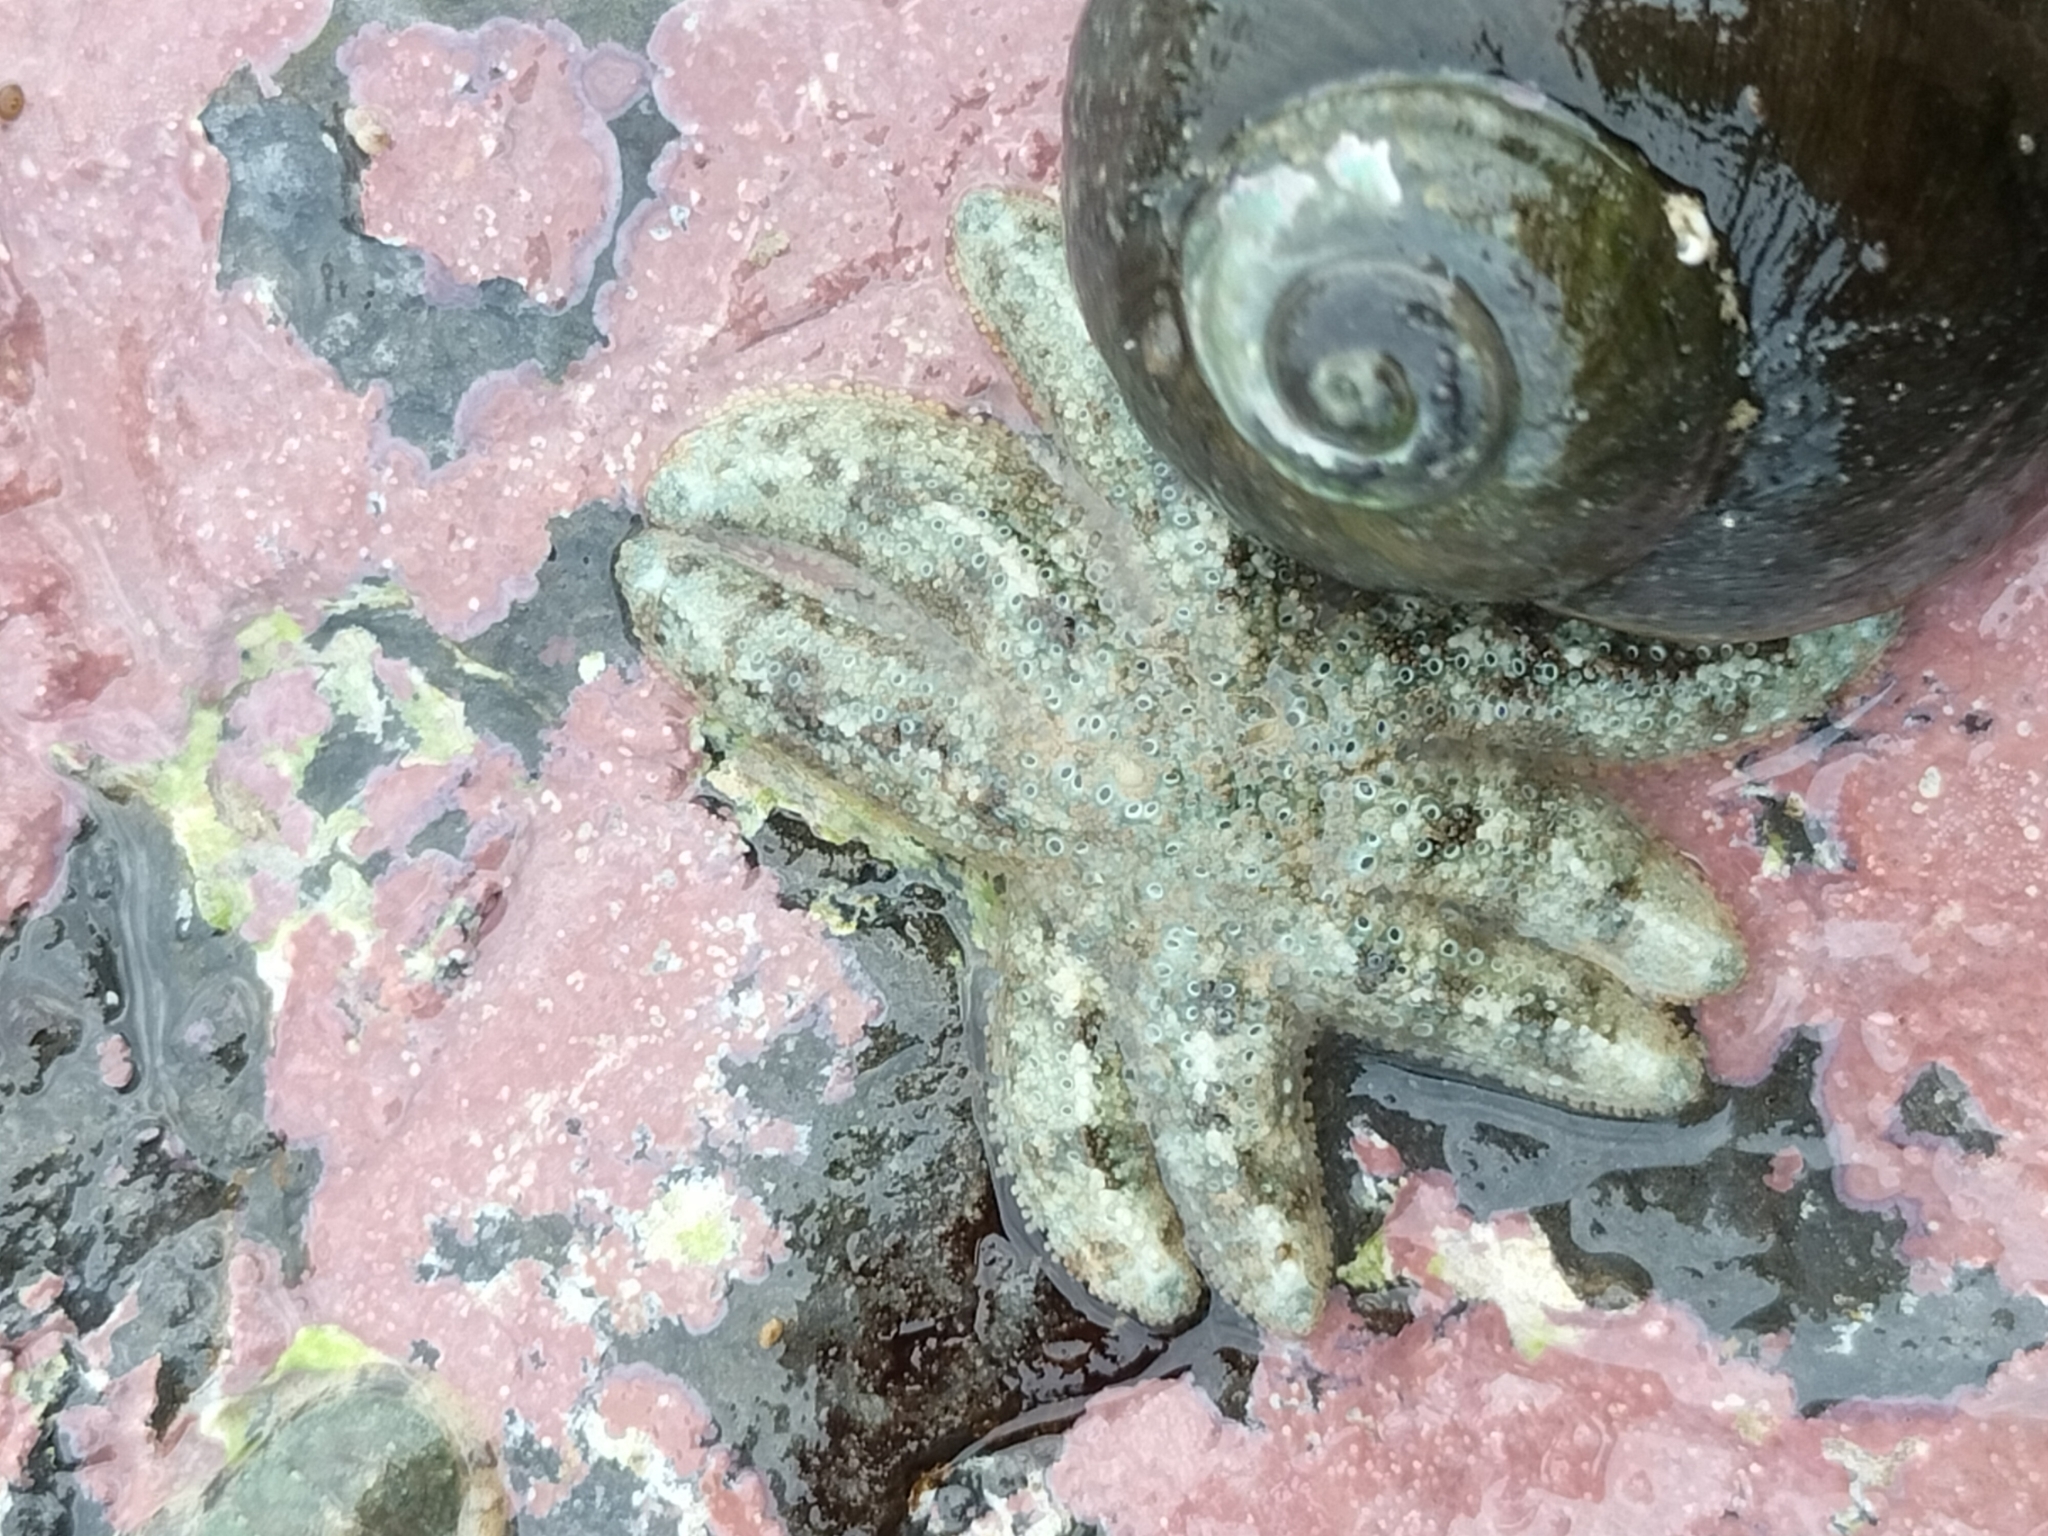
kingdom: Animalia
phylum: Echinodermata
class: Asteroidea
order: Forcipulatida
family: Stichasteridae
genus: Allostichaster
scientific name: Allostichaster polyplax
